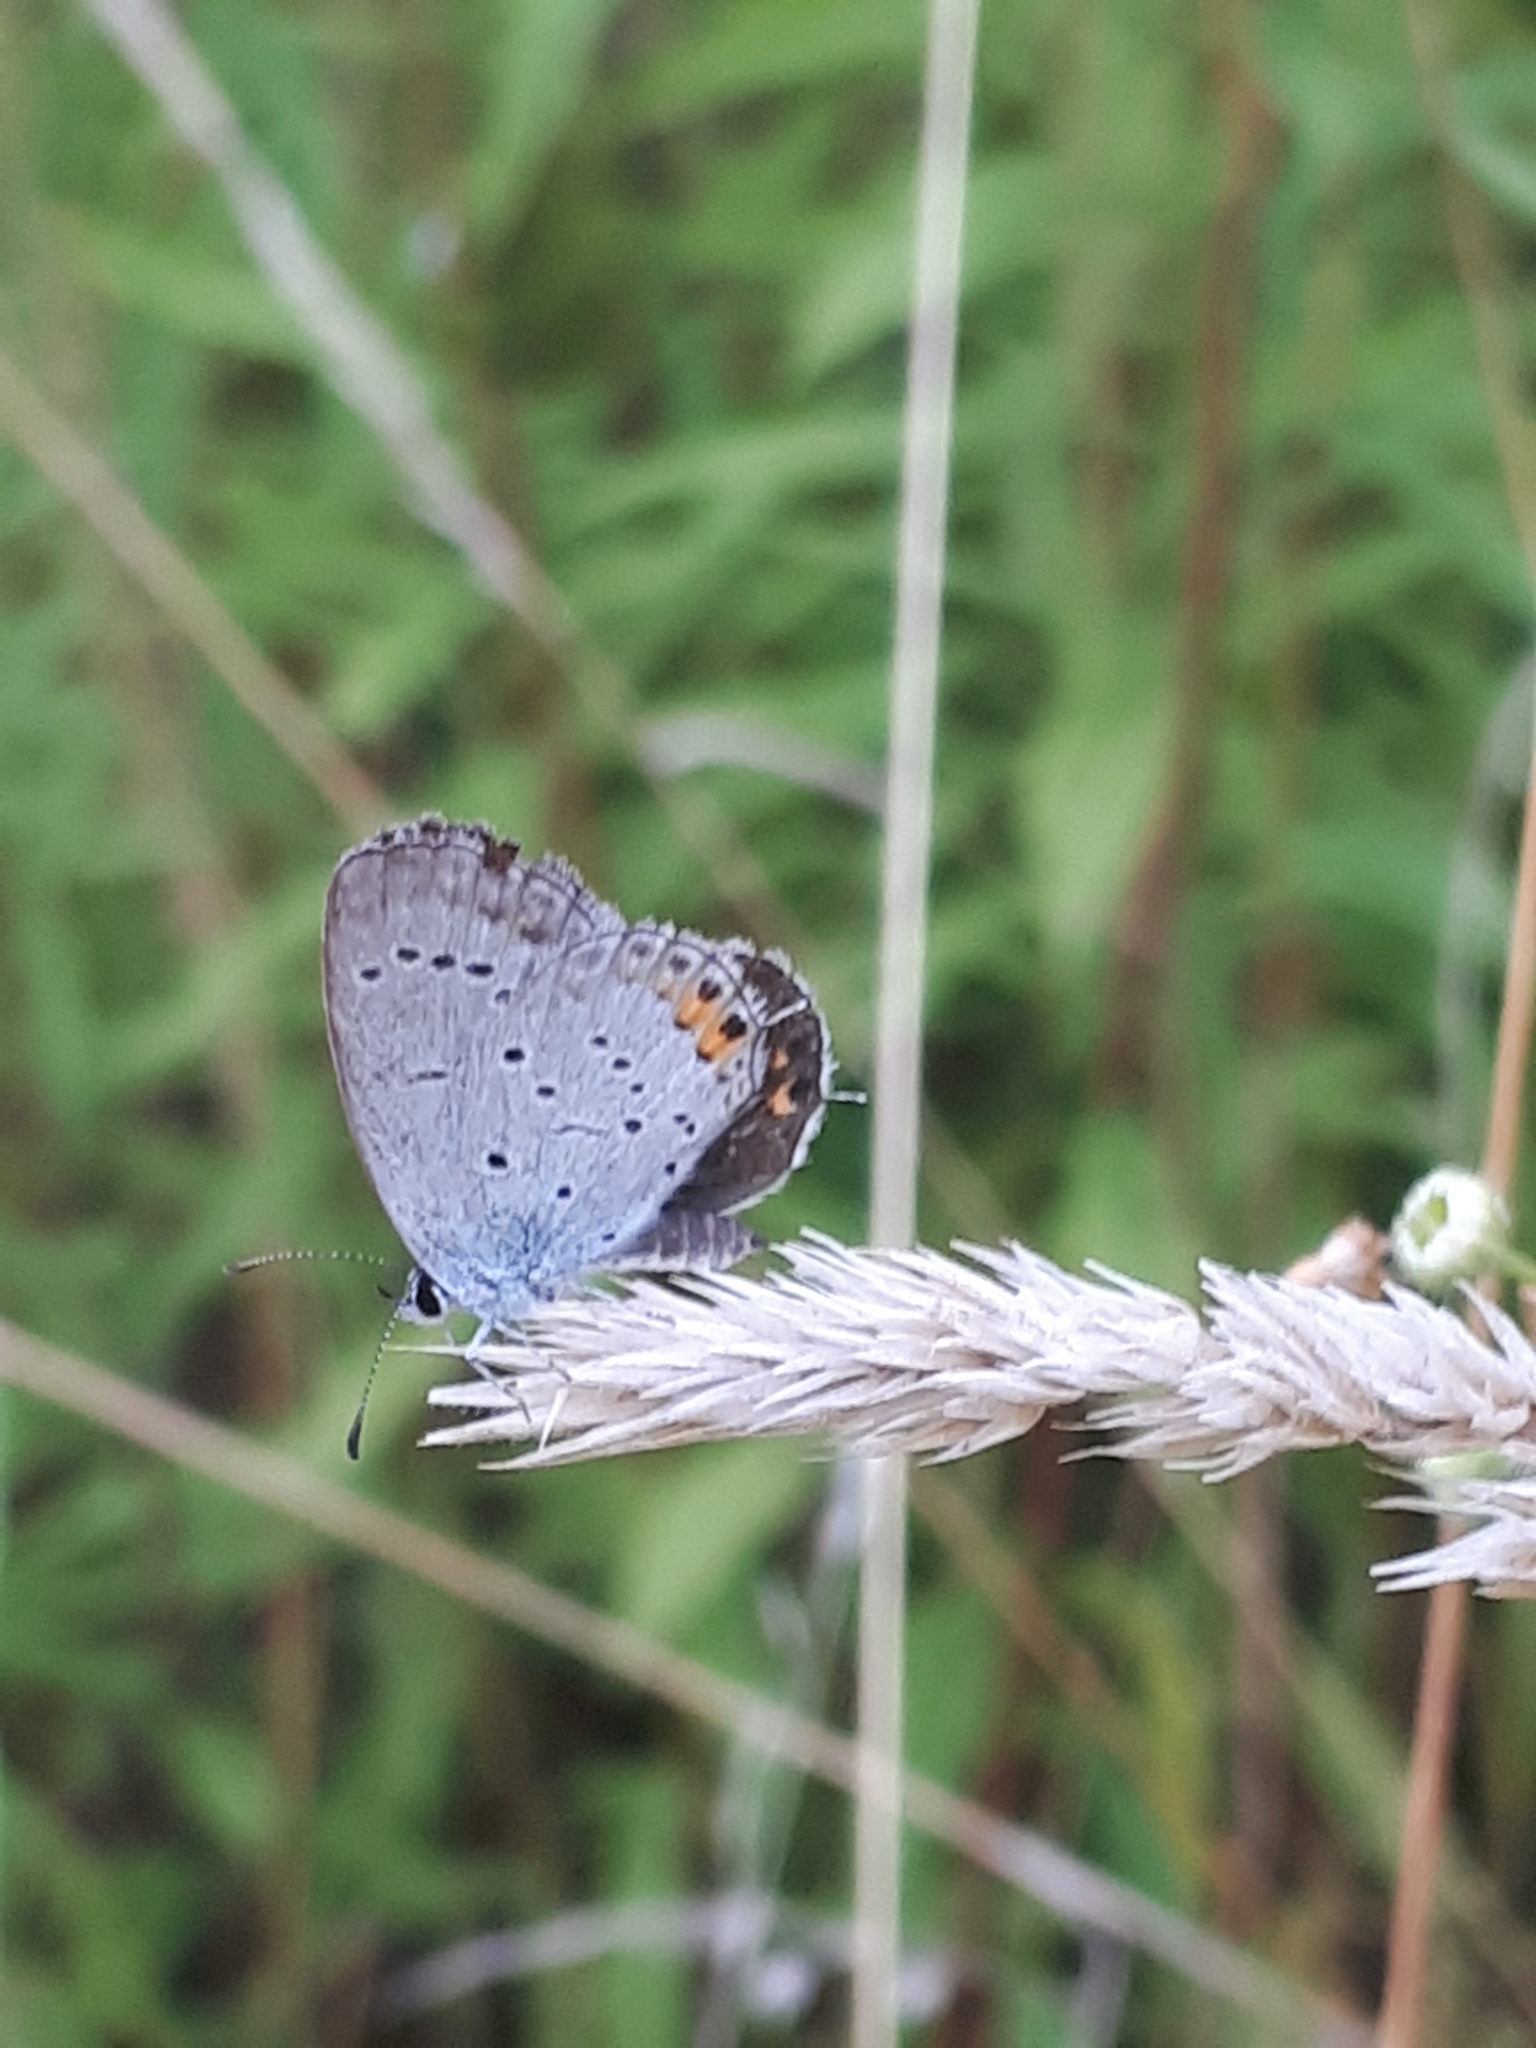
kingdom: Animalia
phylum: Arthropoda
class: Insecta
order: Lepidoptera
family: Lycaenidae
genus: Elkalyce
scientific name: Elkalyce argiades
